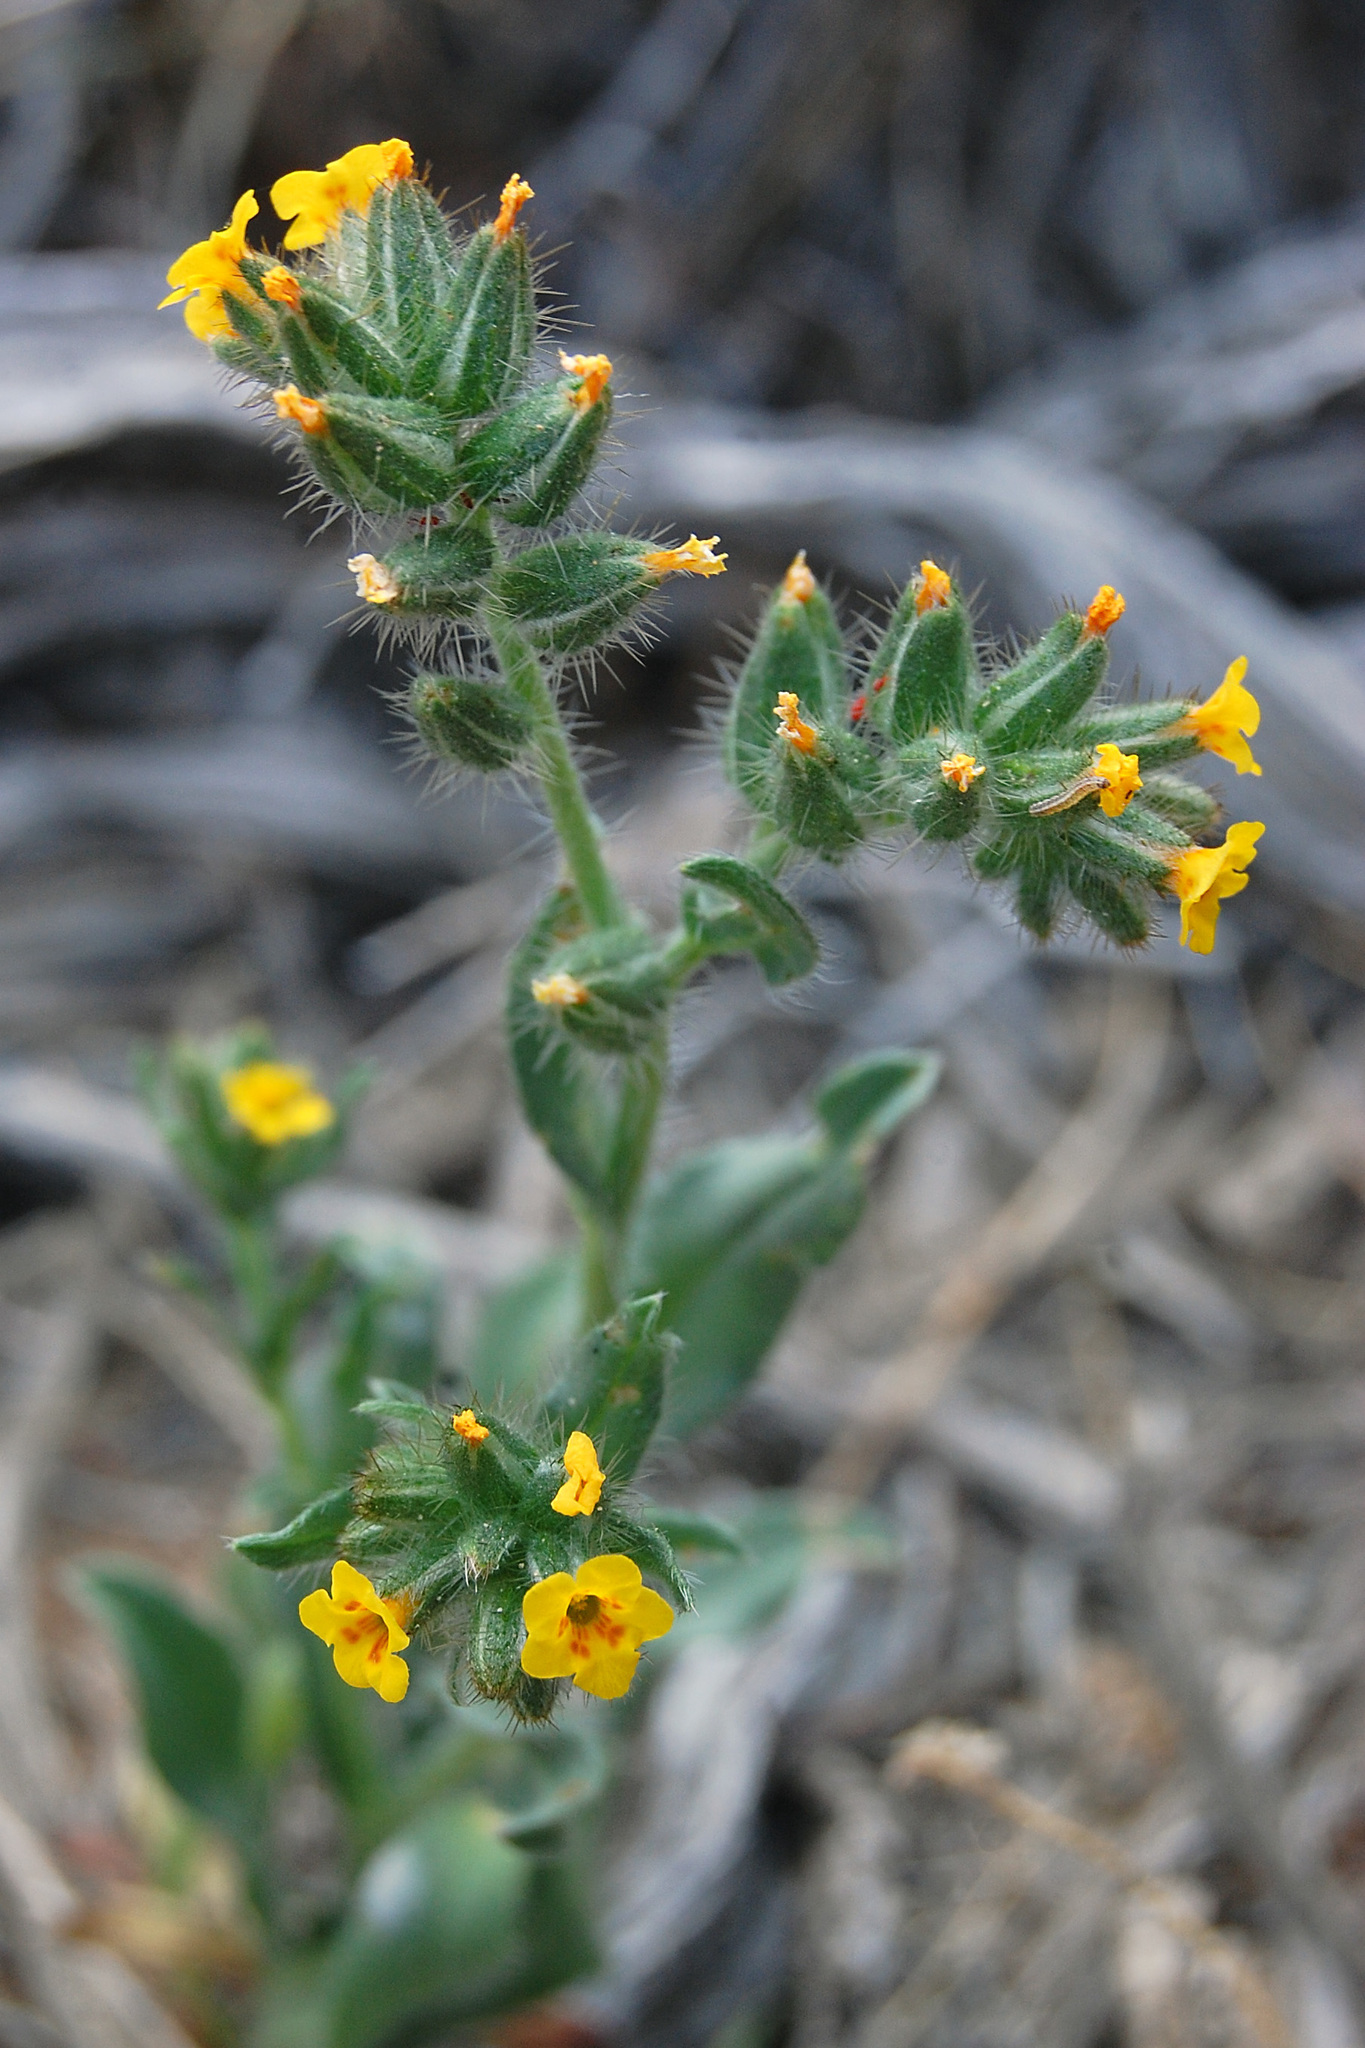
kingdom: Plantae
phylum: Tracheophyta
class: Magnoliopsida
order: Boraginales
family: Boraginaceae
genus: Amsinckia
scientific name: Amsinckia tessellata
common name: Tessellate fiddleneck
